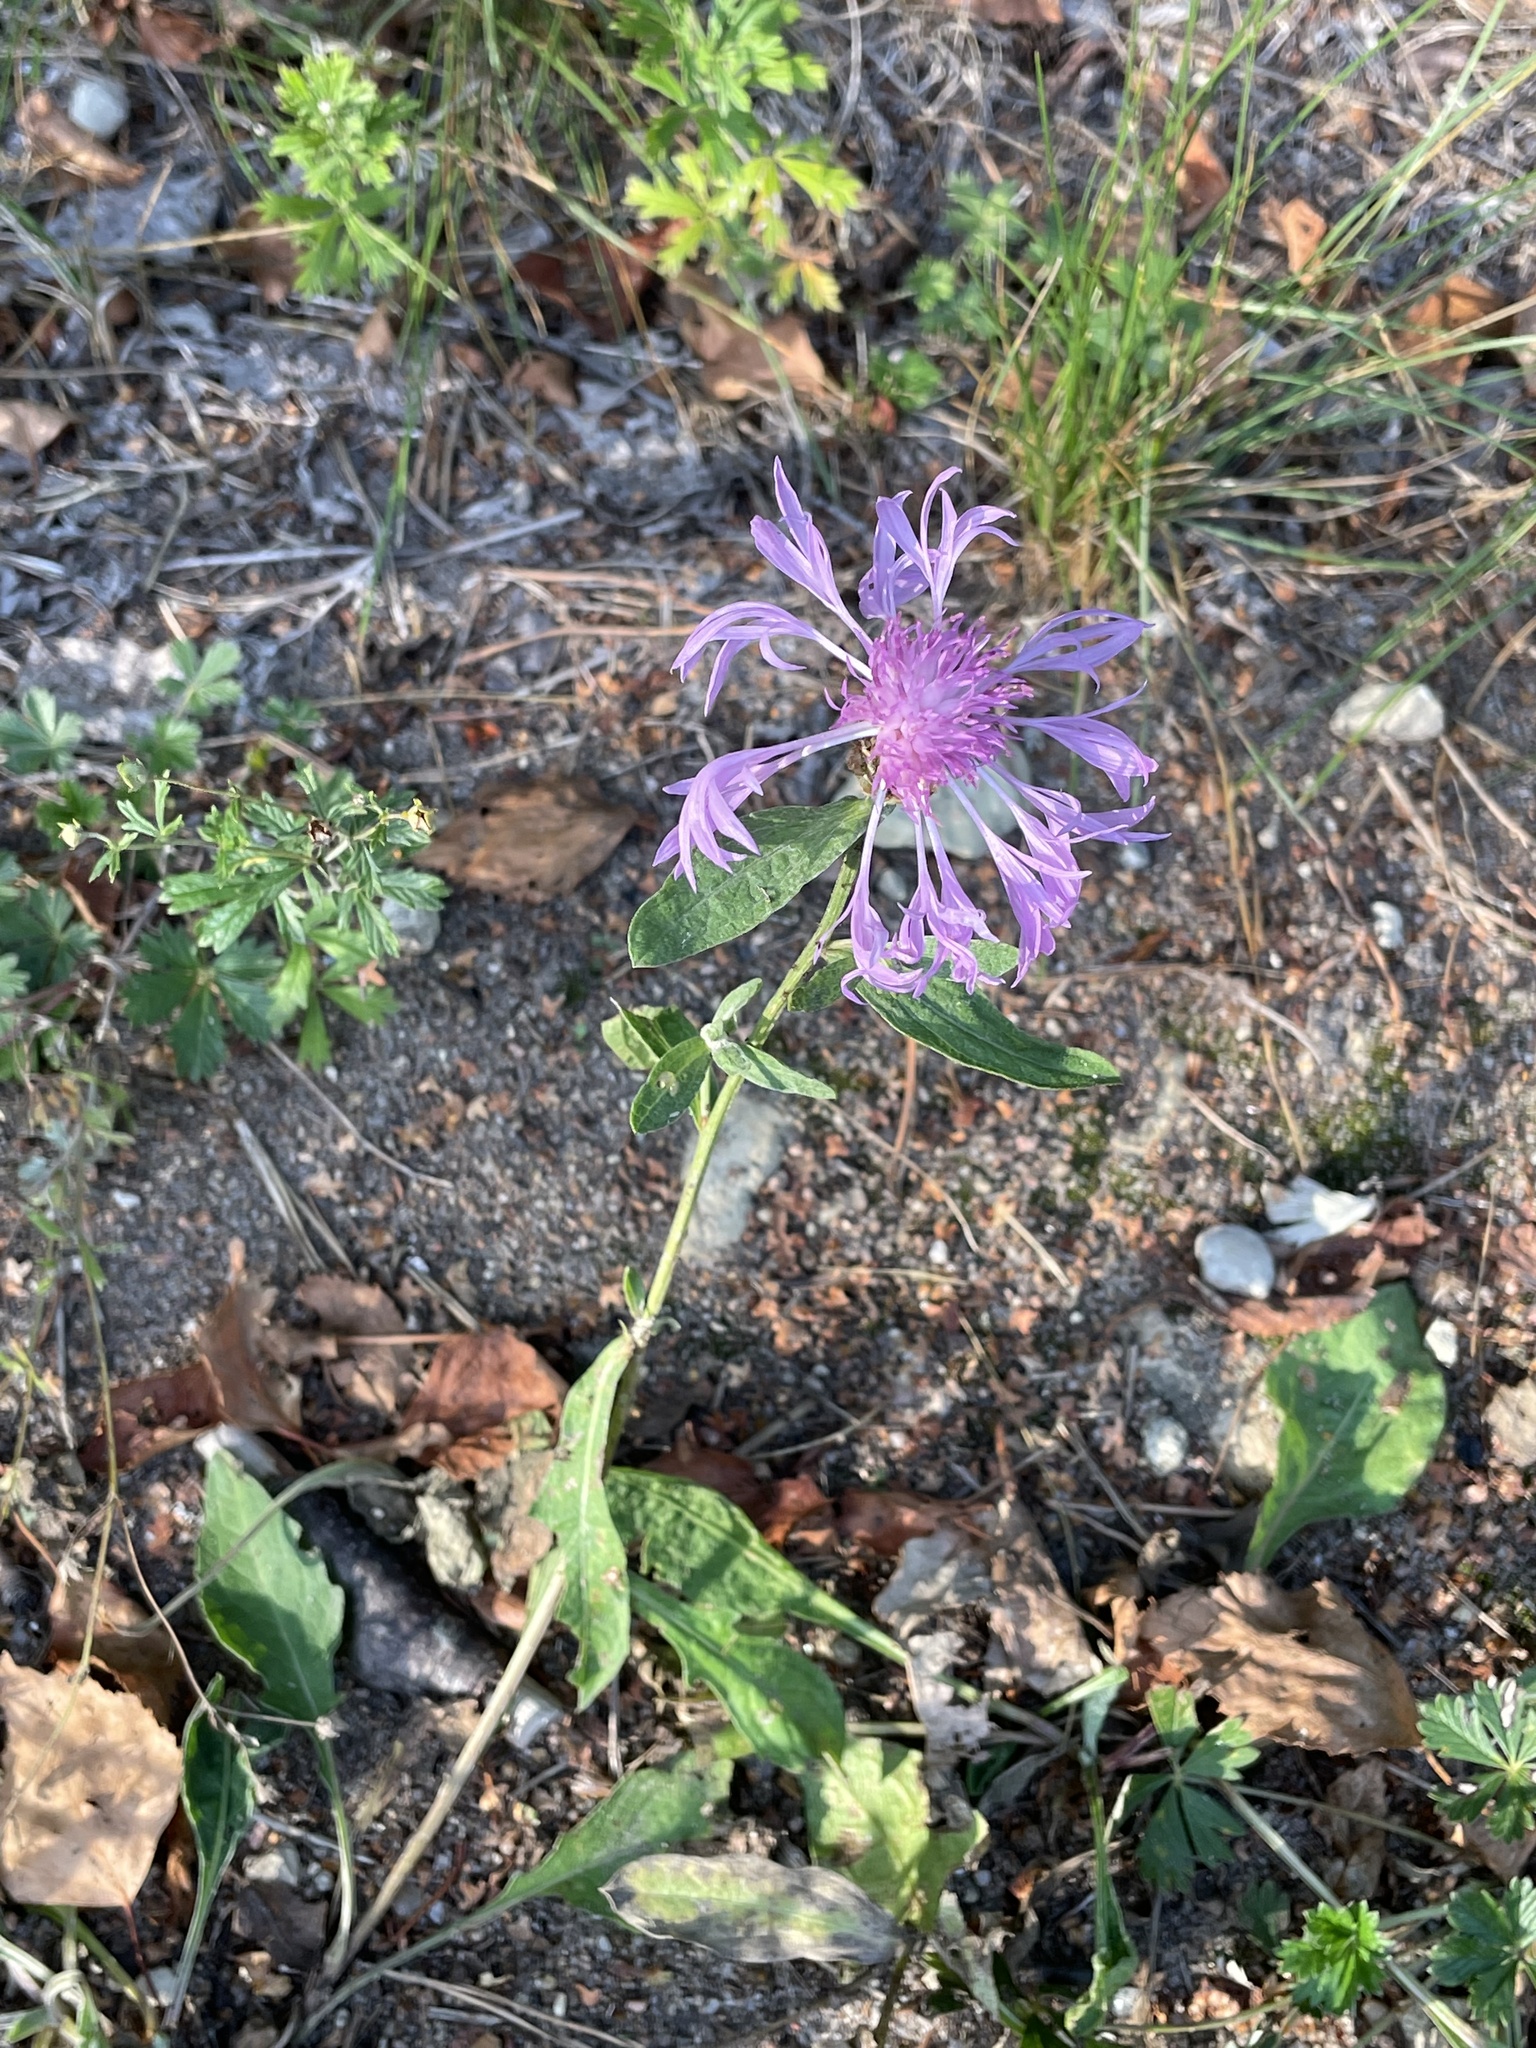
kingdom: Plantae
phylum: Tracheophyta
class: Magnoliopsida
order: Asterales
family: Asteraceae
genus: Centaurea
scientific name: Centaurea jacea
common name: Brown knapweed
